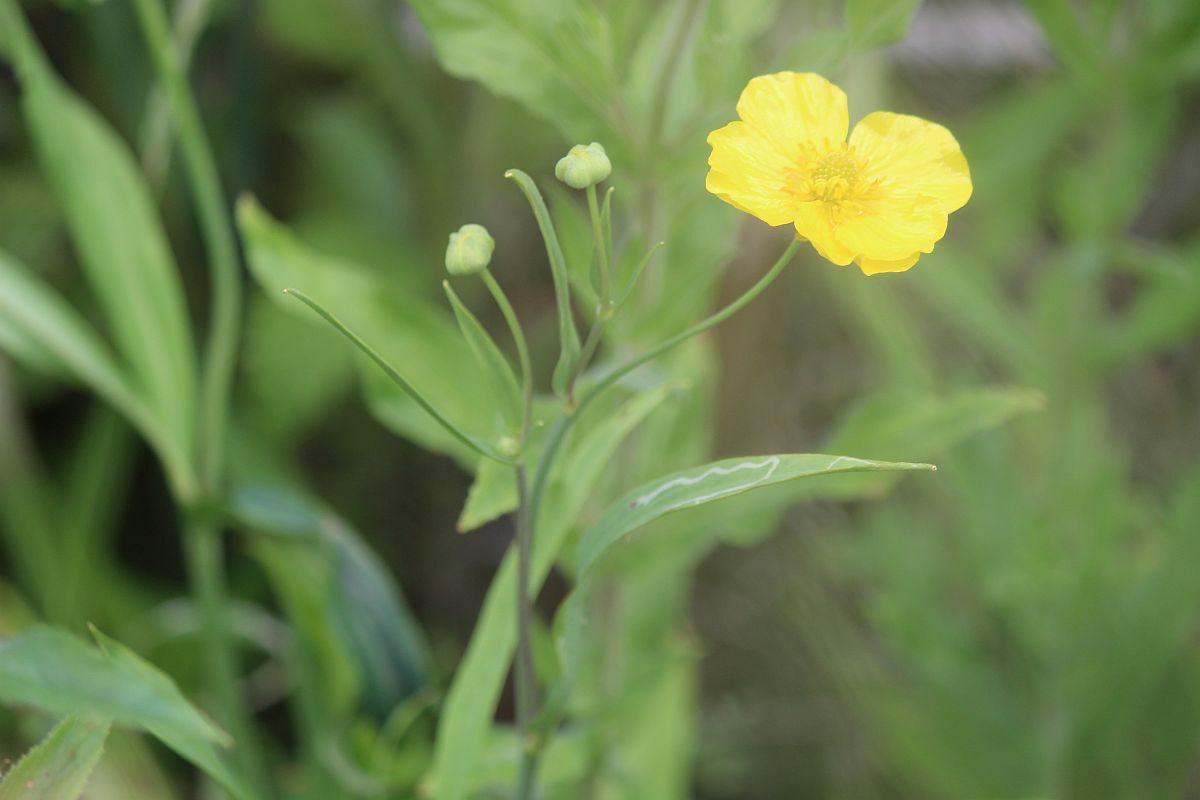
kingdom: Plantae
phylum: Tracheophyta
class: Magnoliopsida
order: Ranunculales
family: Ranunculaceae
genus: Ranunculus
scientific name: Ranunculus lingua
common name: Greater spearwort
